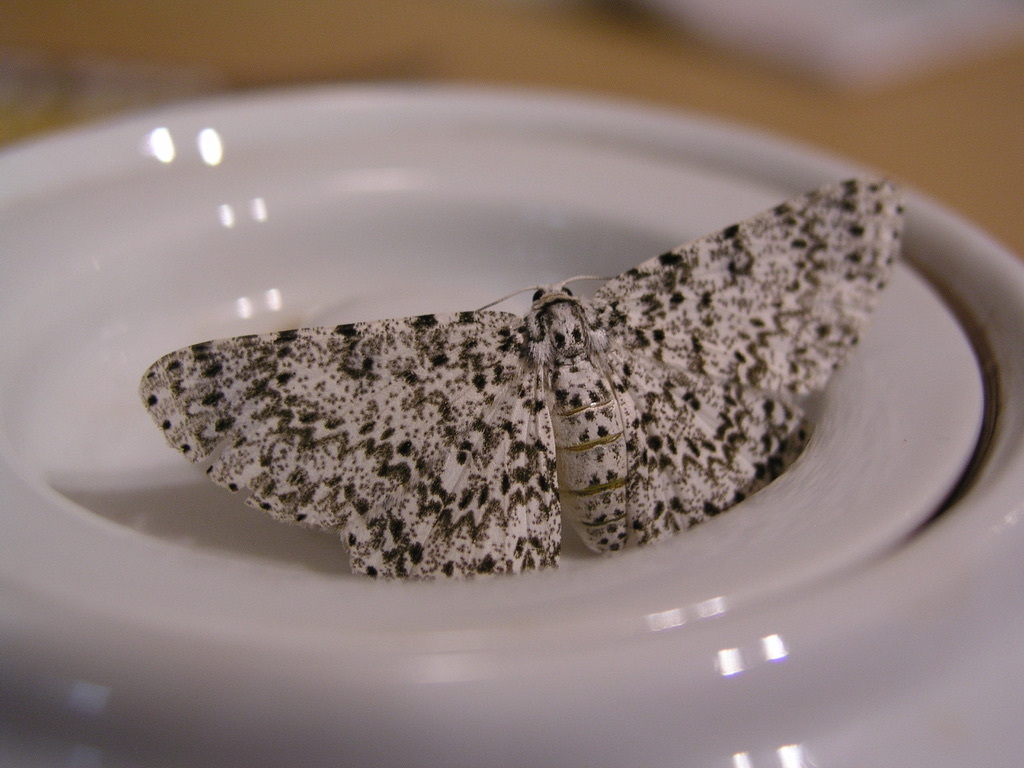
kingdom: Animalia
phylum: Arthropoda
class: Insecta
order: Lepidoptera
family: Geometridae
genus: Catoria
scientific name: Catoria camelaria
